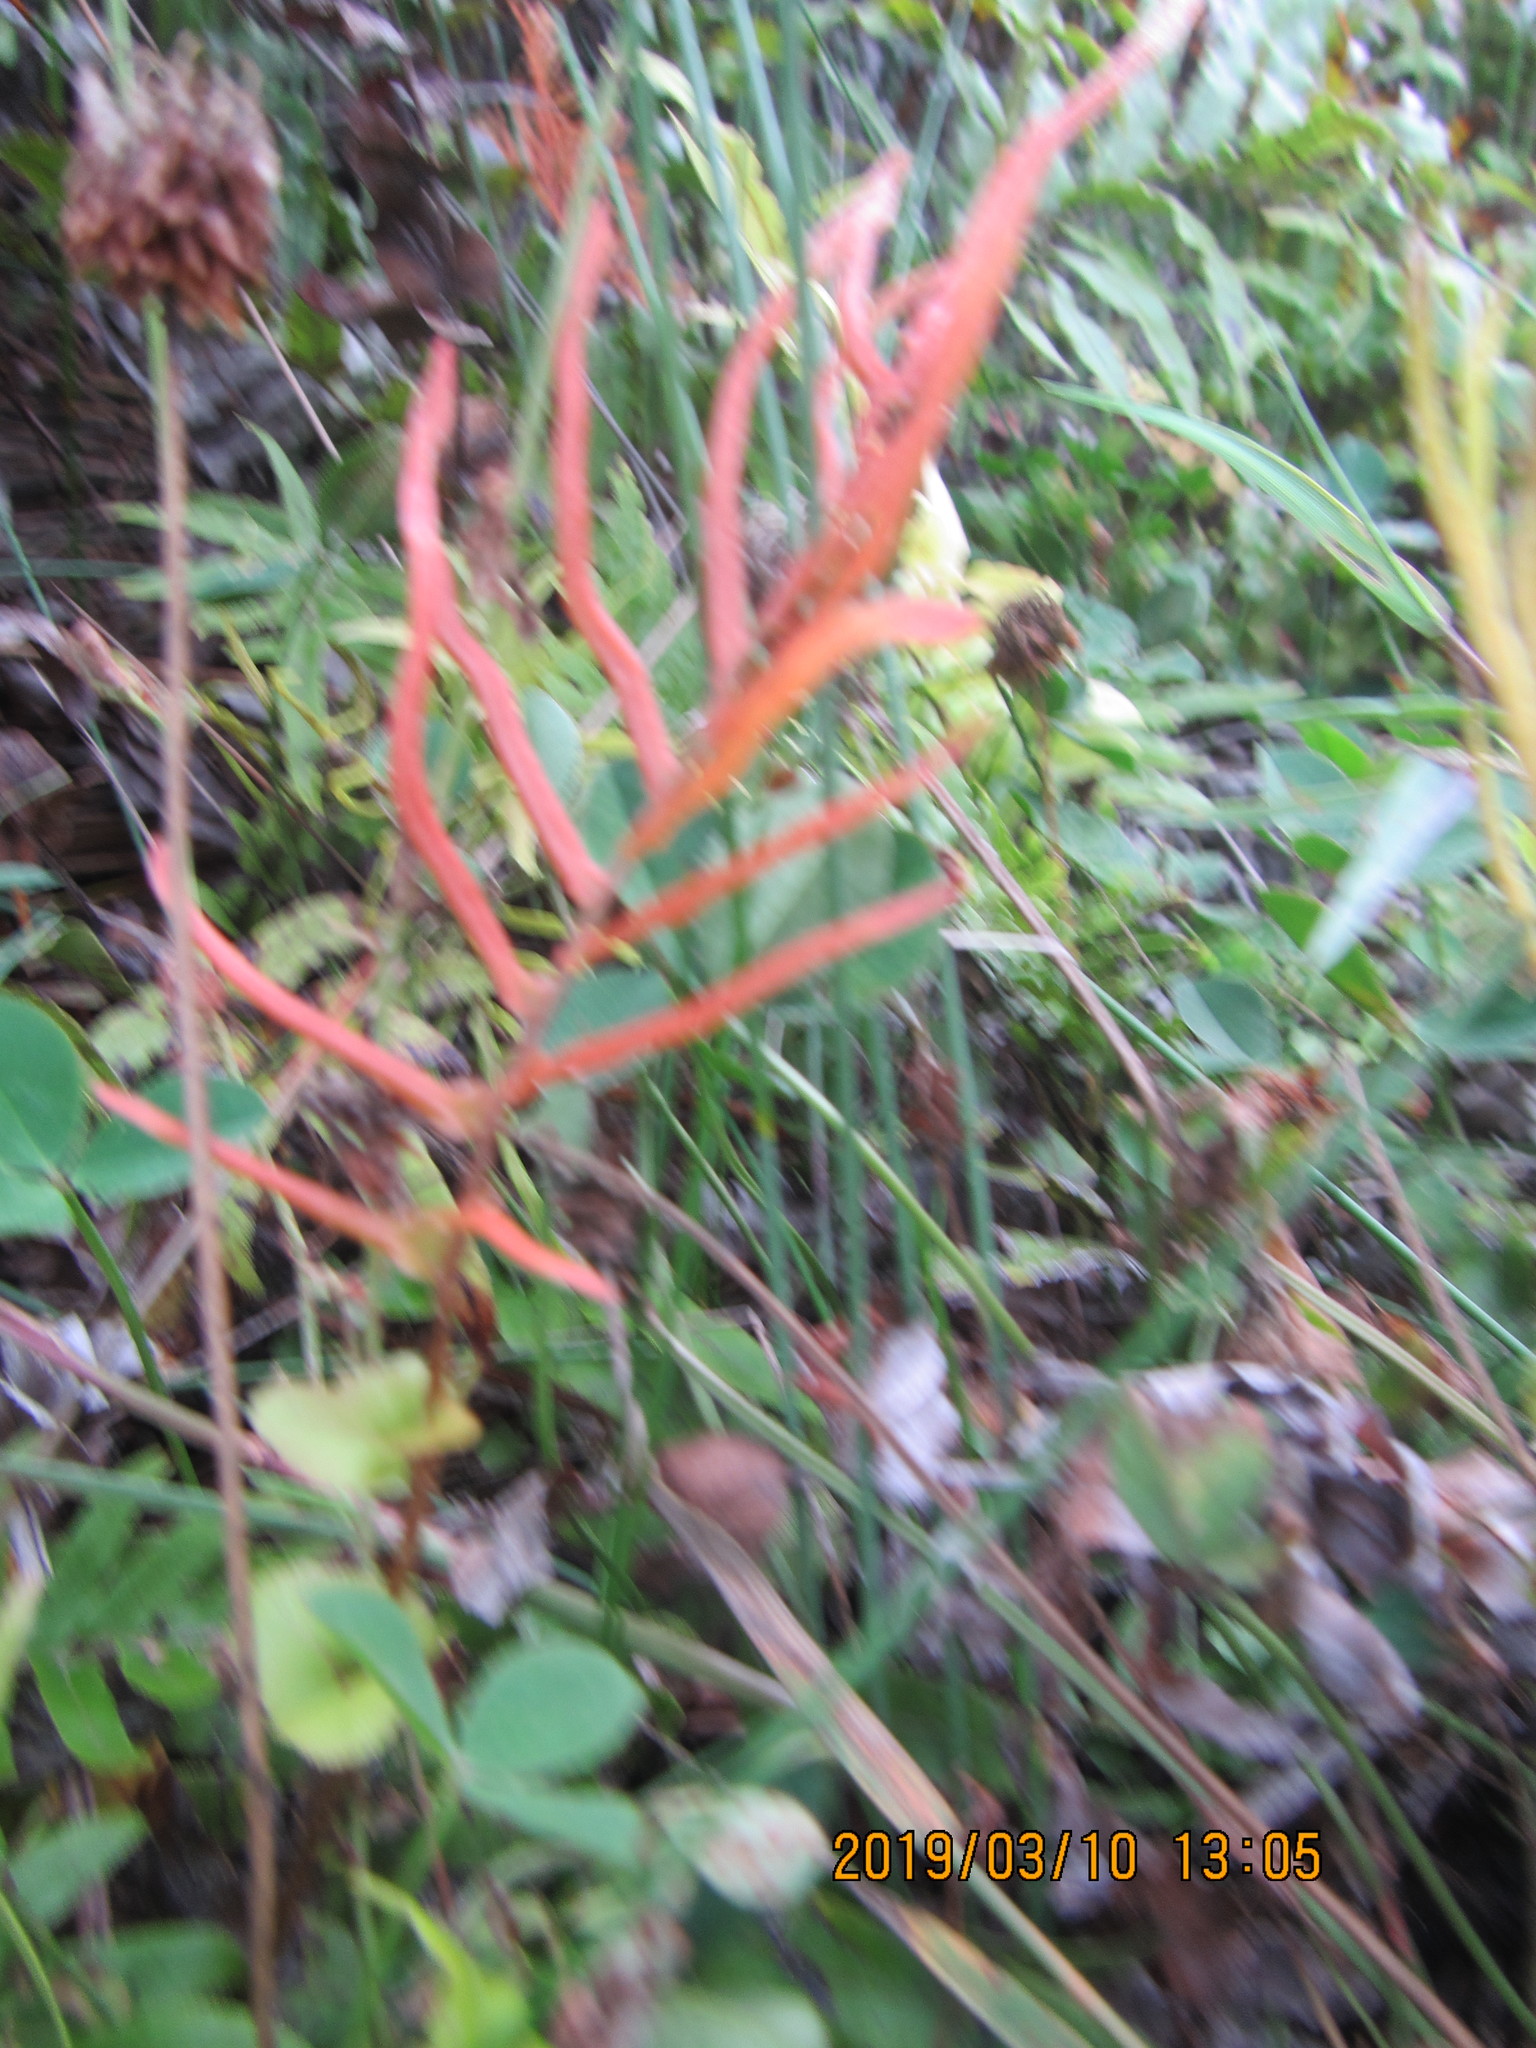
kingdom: Plantae
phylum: Tracheophyta
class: Polypodiopsida
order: Polypodiales
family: Blechnaceae
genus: Parablechnum
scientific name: Parablechnum novae-zelandiae
